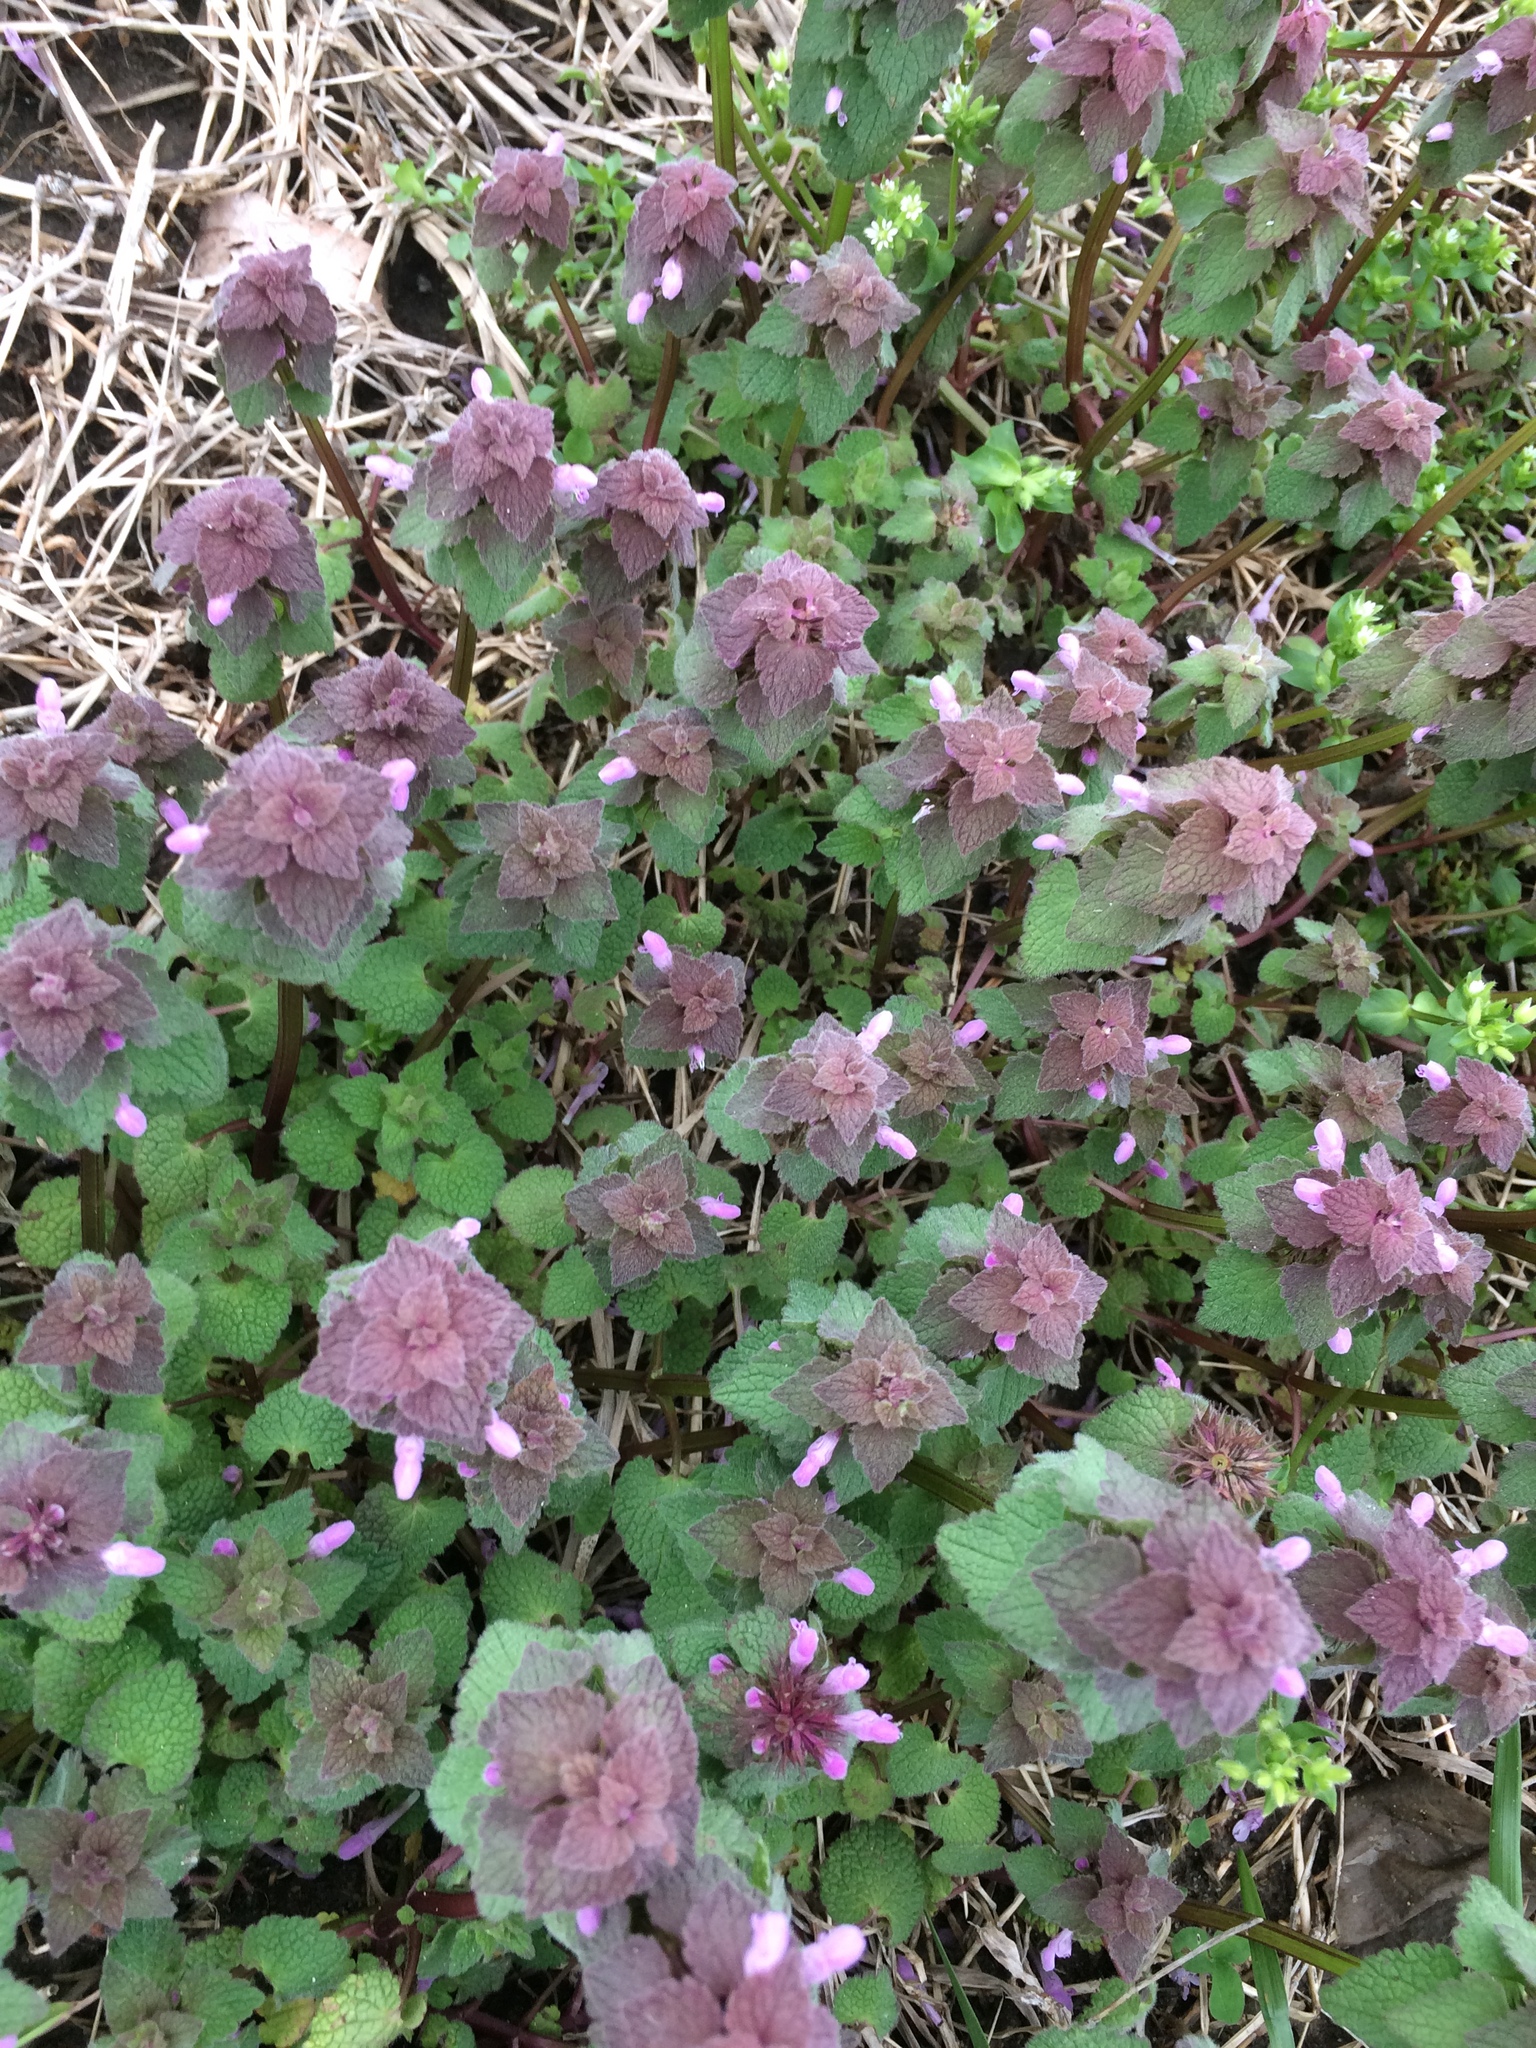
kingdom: Plantae
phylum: Tracheophyta
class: Magnoliopsida
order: Lamiales
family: Lamiaceae
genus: Lamium
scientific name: Lamium purpureum
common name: Red dead-nettle
